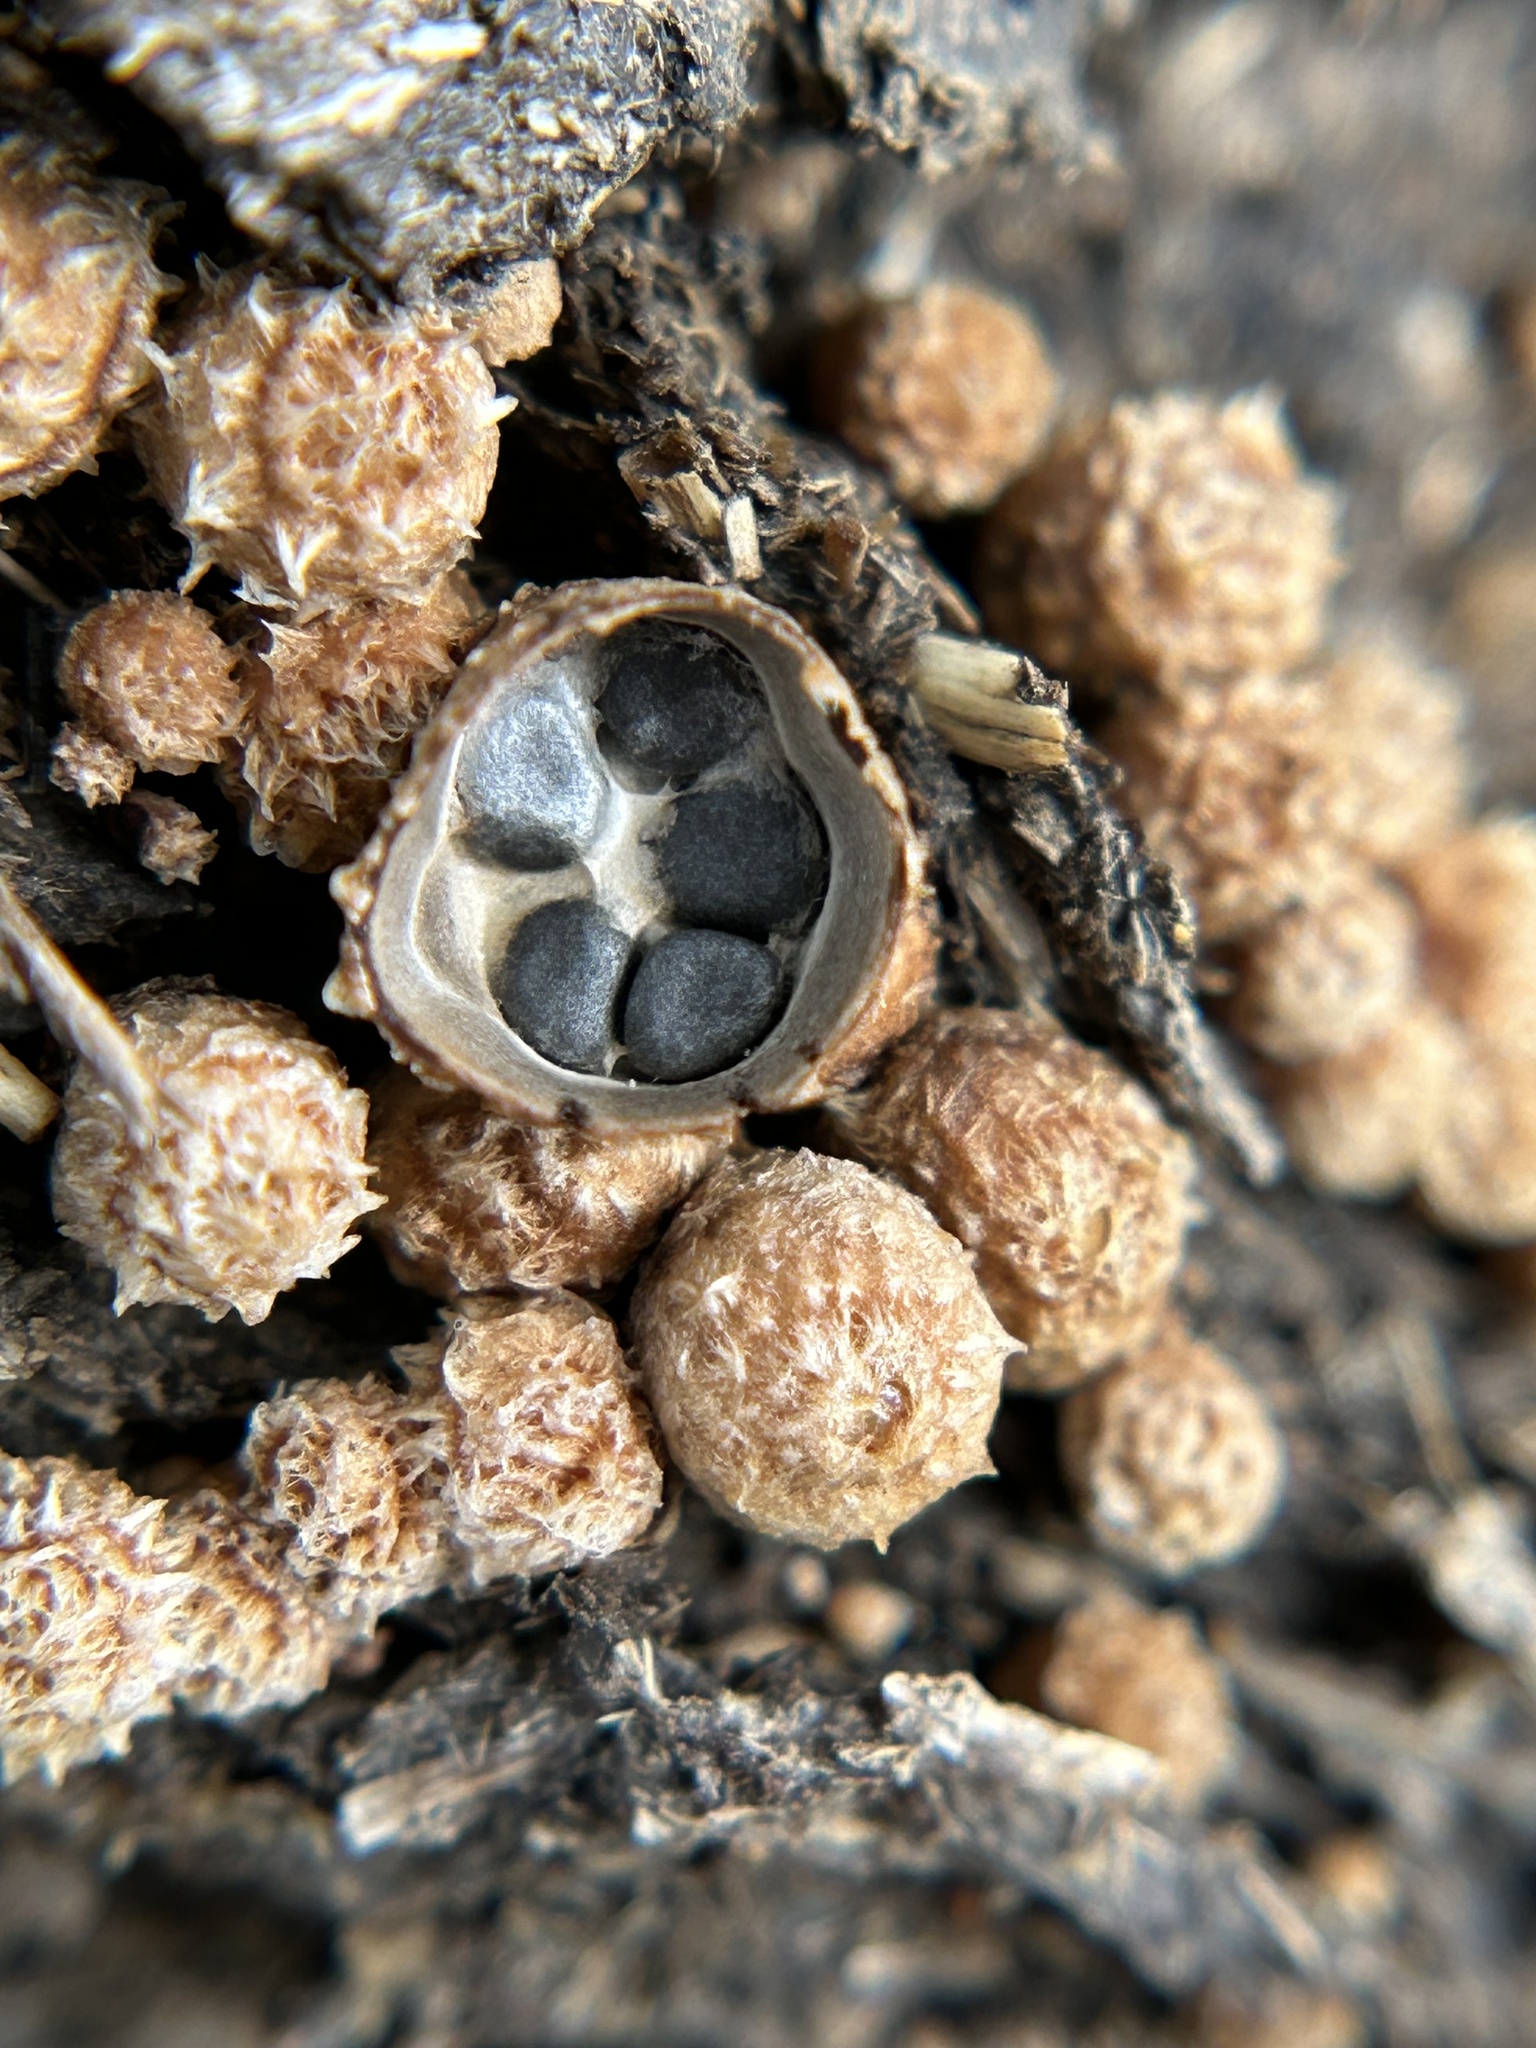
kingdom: Fungi
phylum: Basidiomycota
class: Agaricomycetes
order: Agaricales
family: Agaricaceae
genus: Cyathus
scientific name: Cyathus stercoreus
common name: Dung bird's nest
